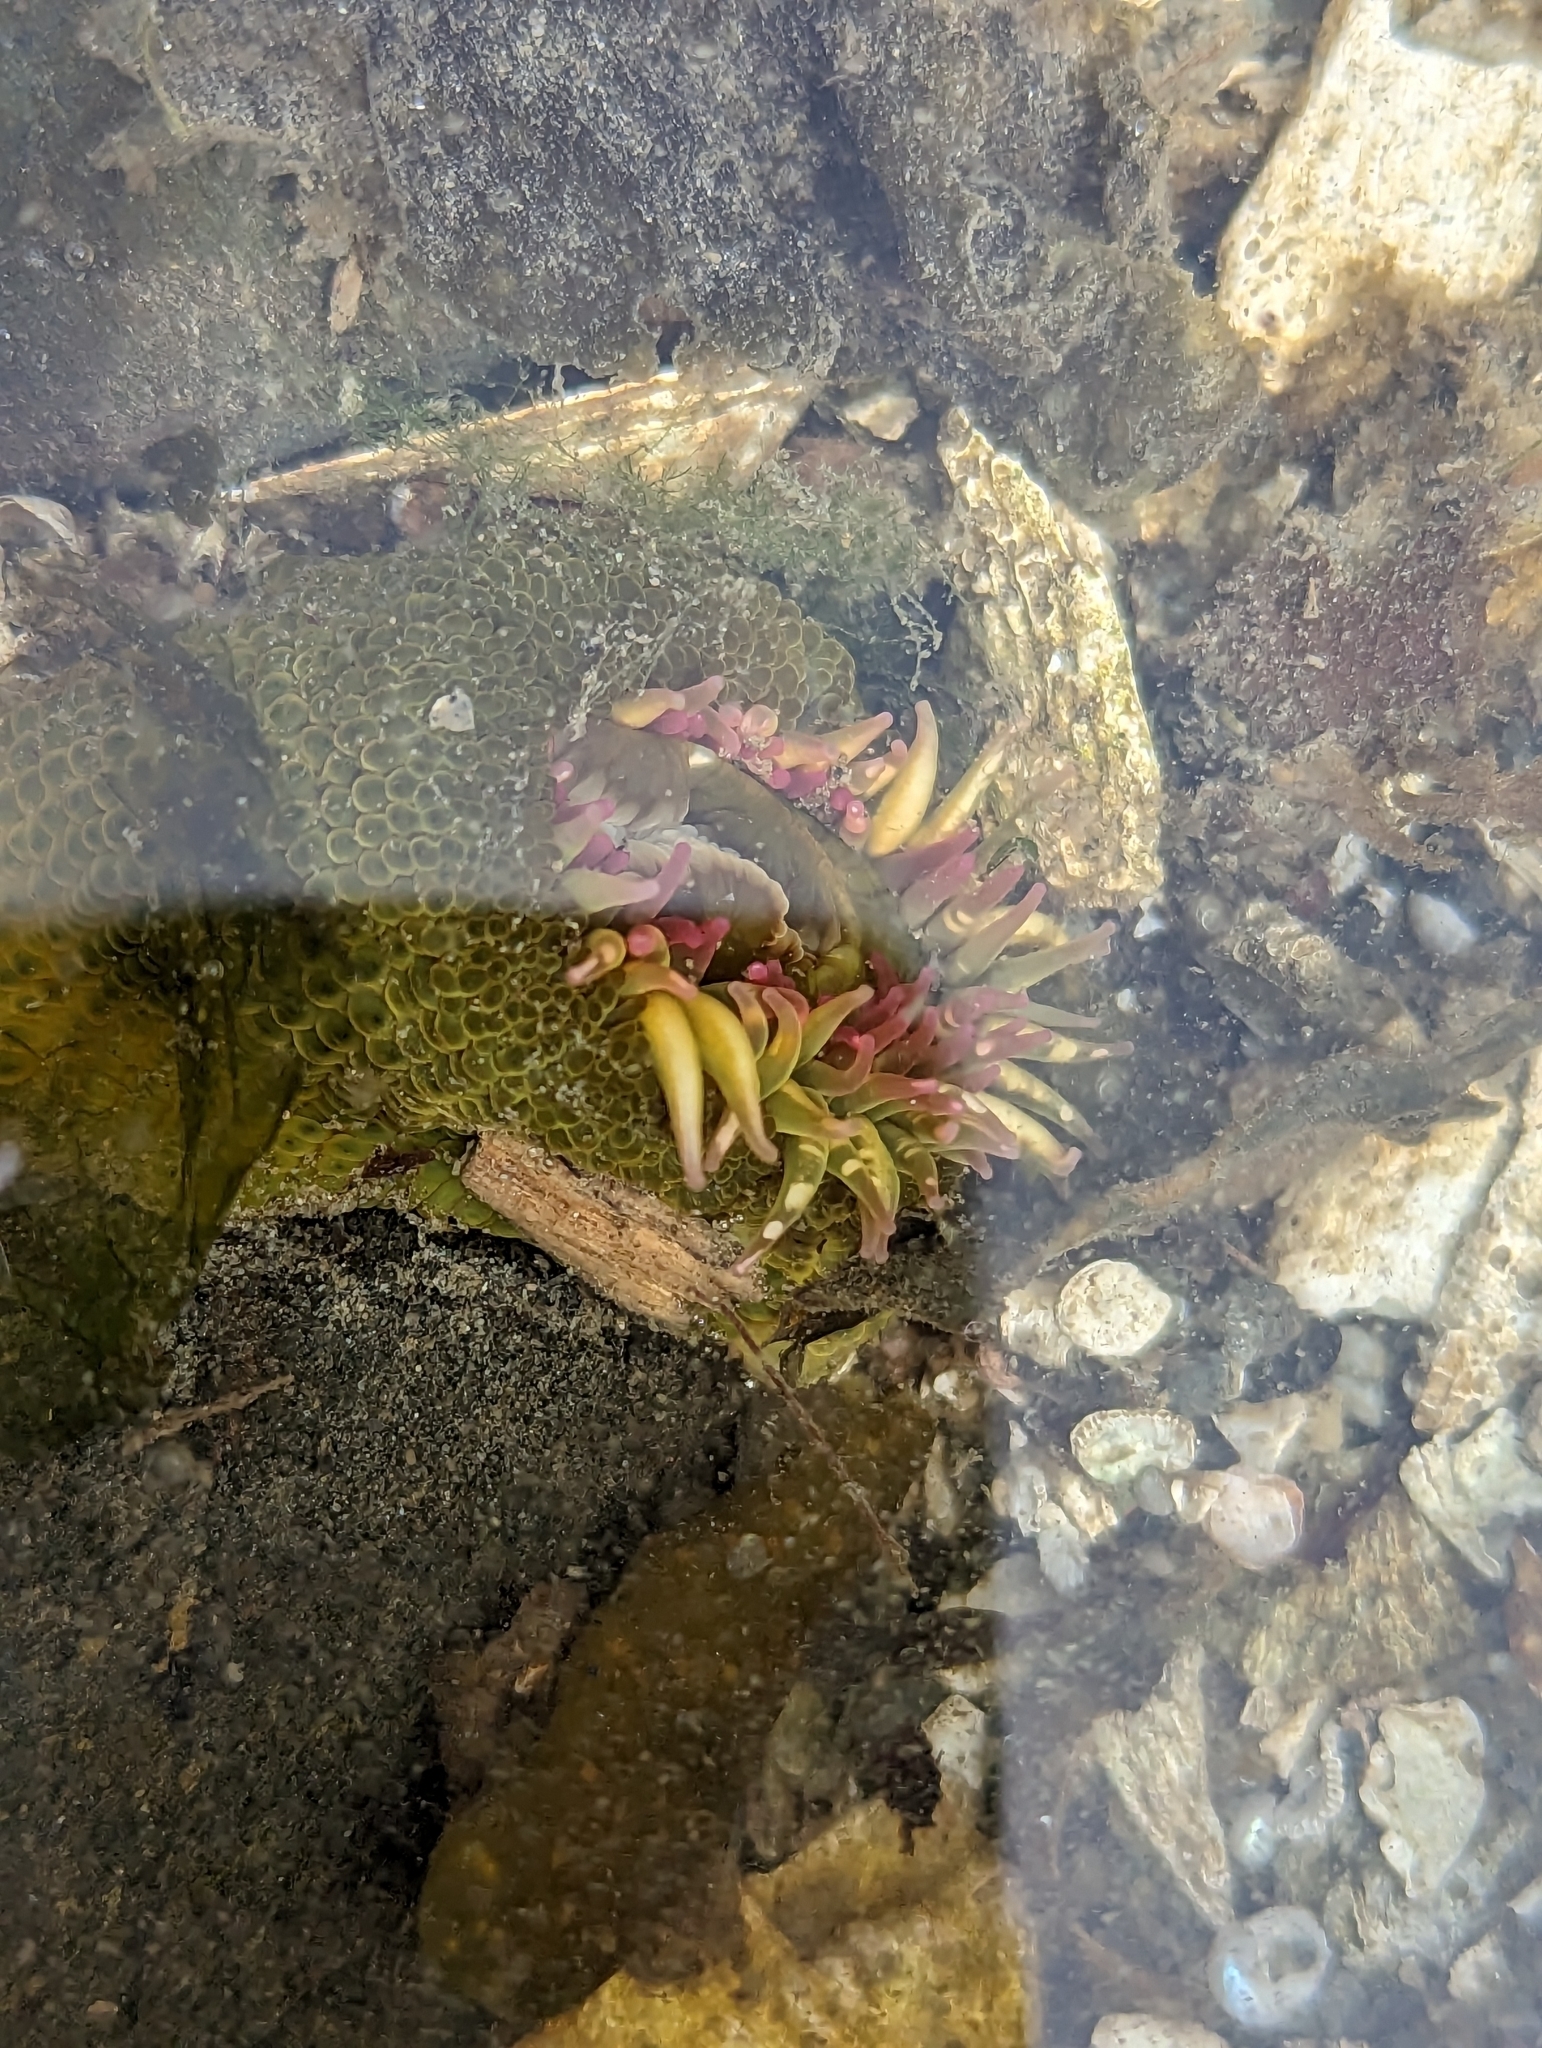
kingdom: Animalia
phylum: Cnidaria
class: Anthozoa
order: Actiniaria
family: Actiniidae
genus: Anthopleura
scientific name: Anthopleura elegantissima
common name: Clonal anemone
